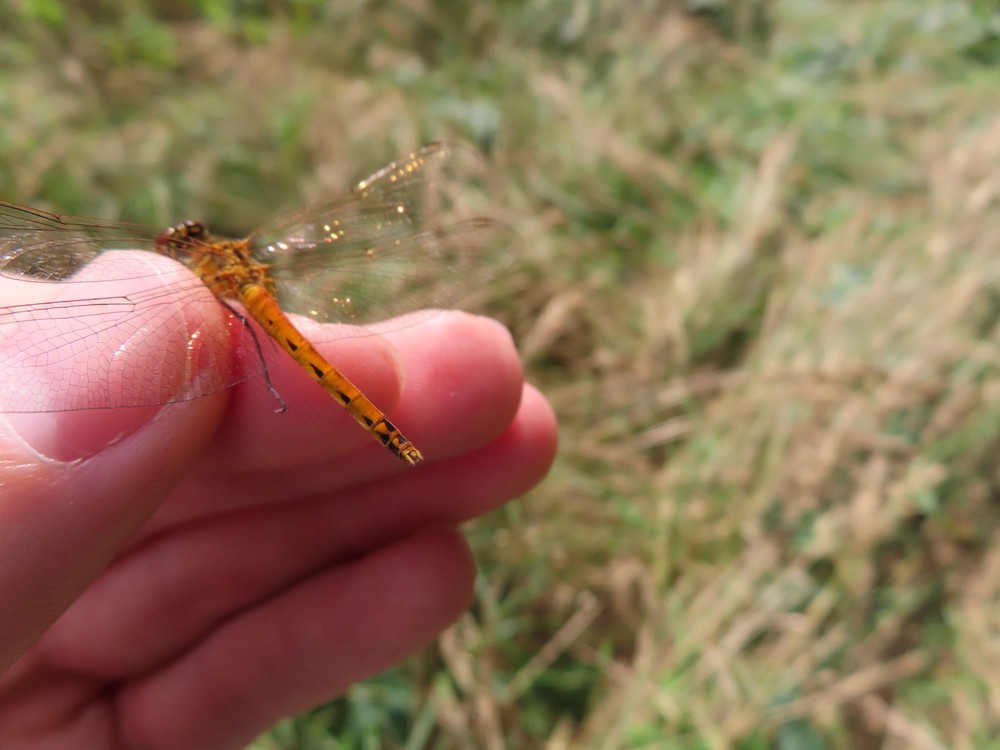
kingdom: Animalia
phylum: Arthropoda
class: Insecta
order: Odonata
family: Libellulidae
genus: Sympetrum
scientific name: Sympetrum depressiusculum
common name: Spotted darter
